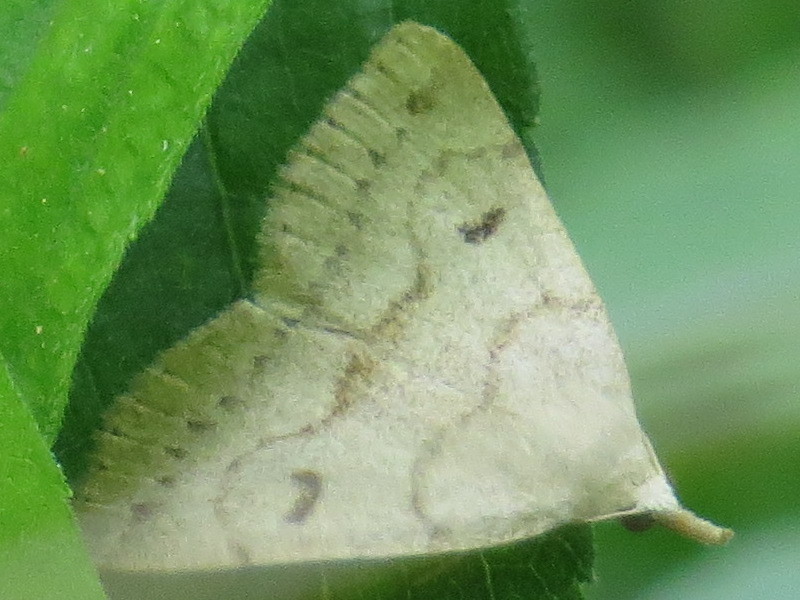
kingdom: Animalia
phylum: Arthropoda
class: Insecta
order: Lepidoptera
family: Erebidae
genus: Macrochilo
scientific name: Macrochilo morbidalis
